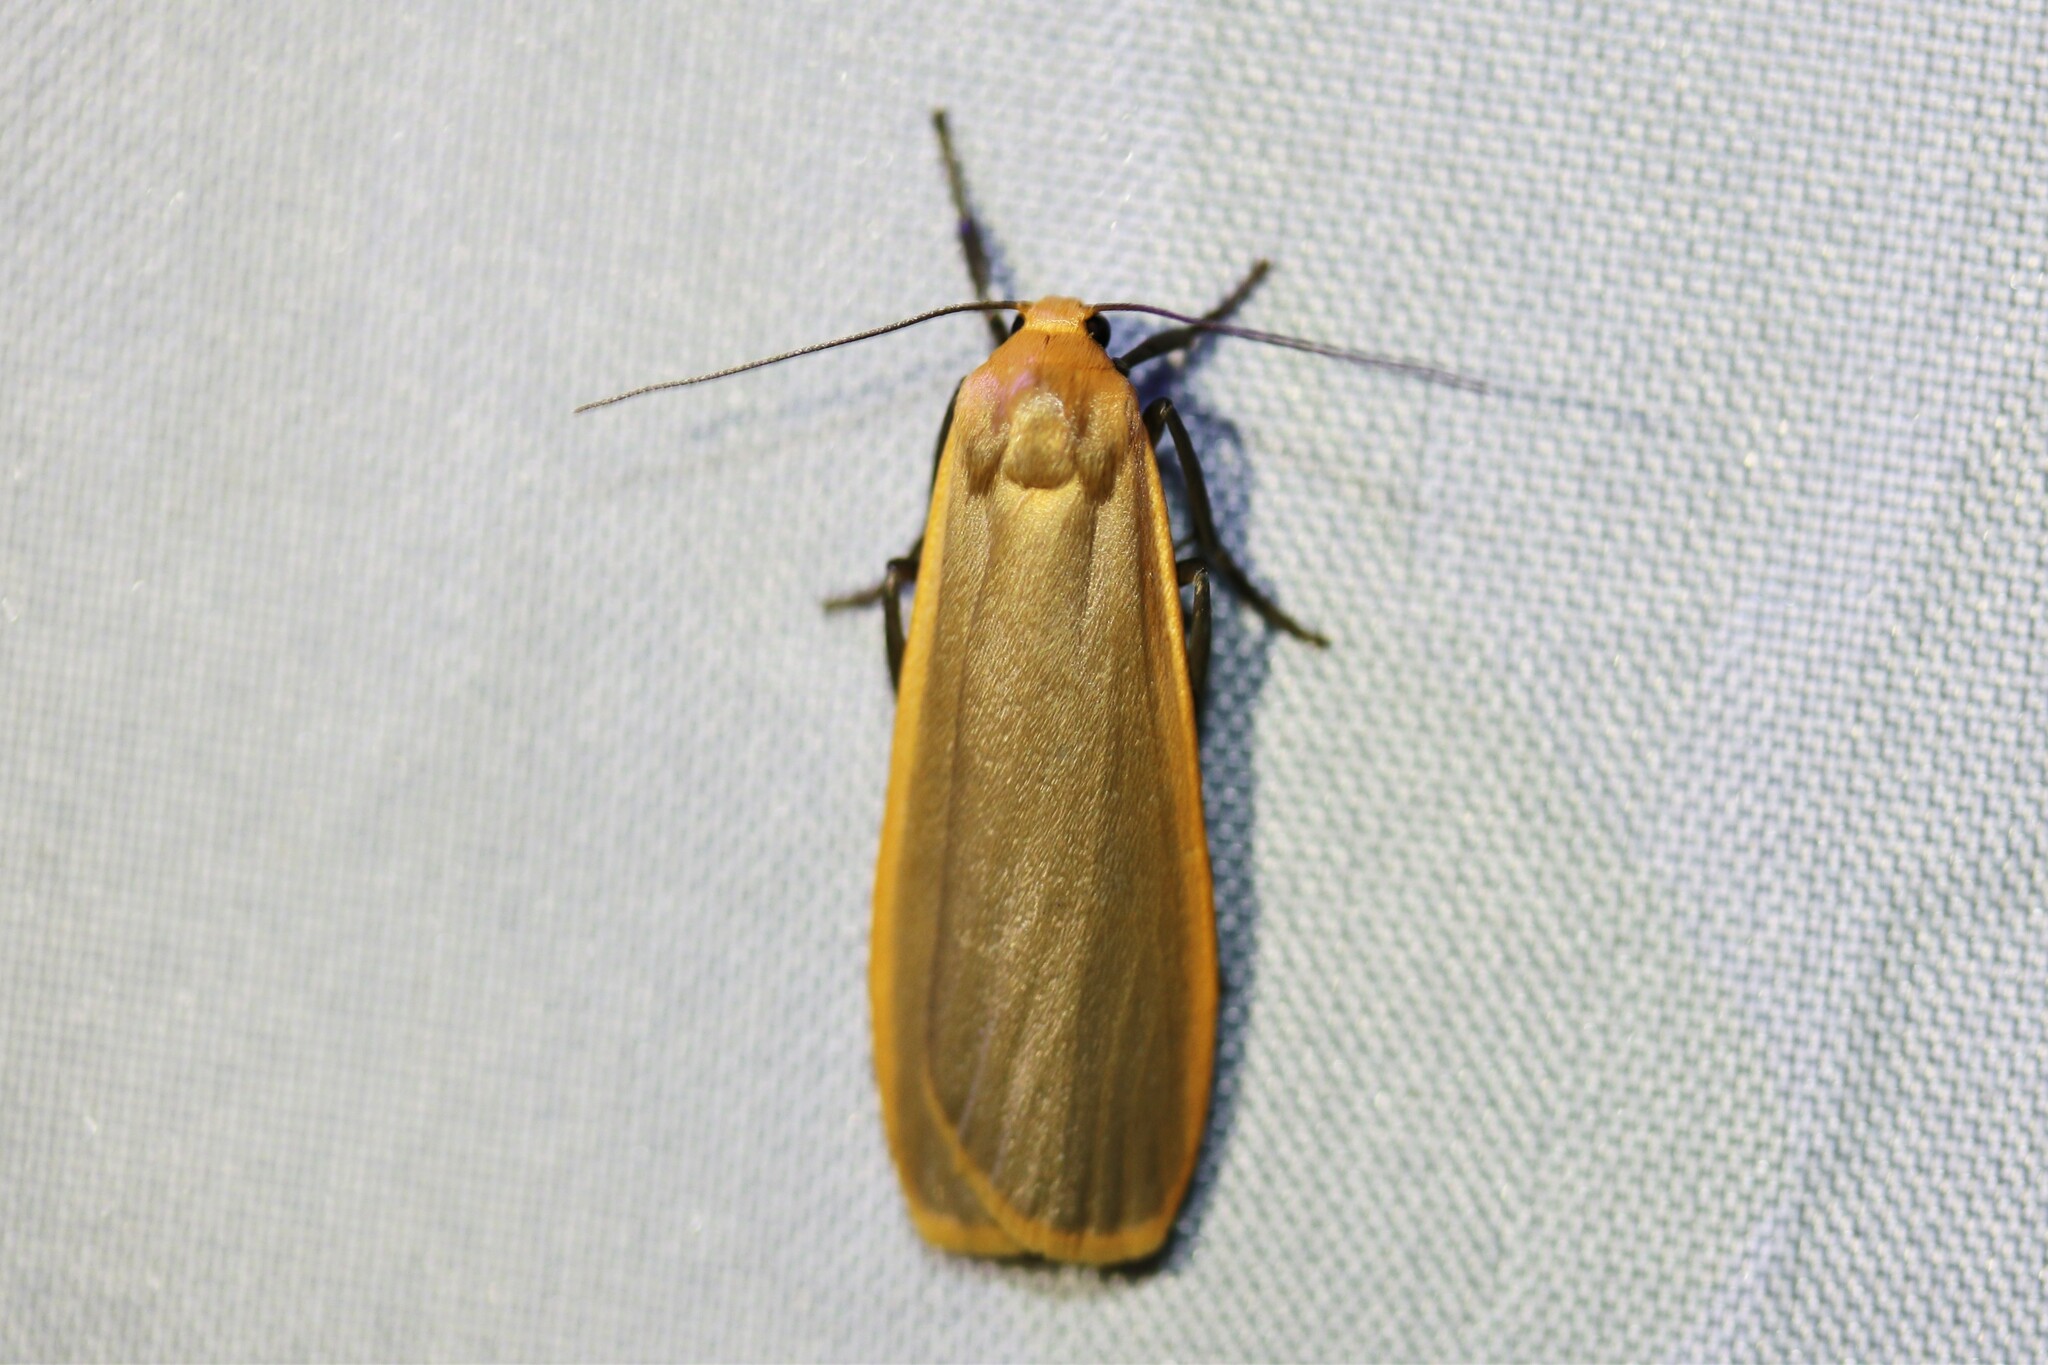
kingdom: Animalia
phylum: Arthropoda
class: Insecta
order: Lepidoptera
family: Erebidae
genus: Katha
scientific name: Katha depressa
